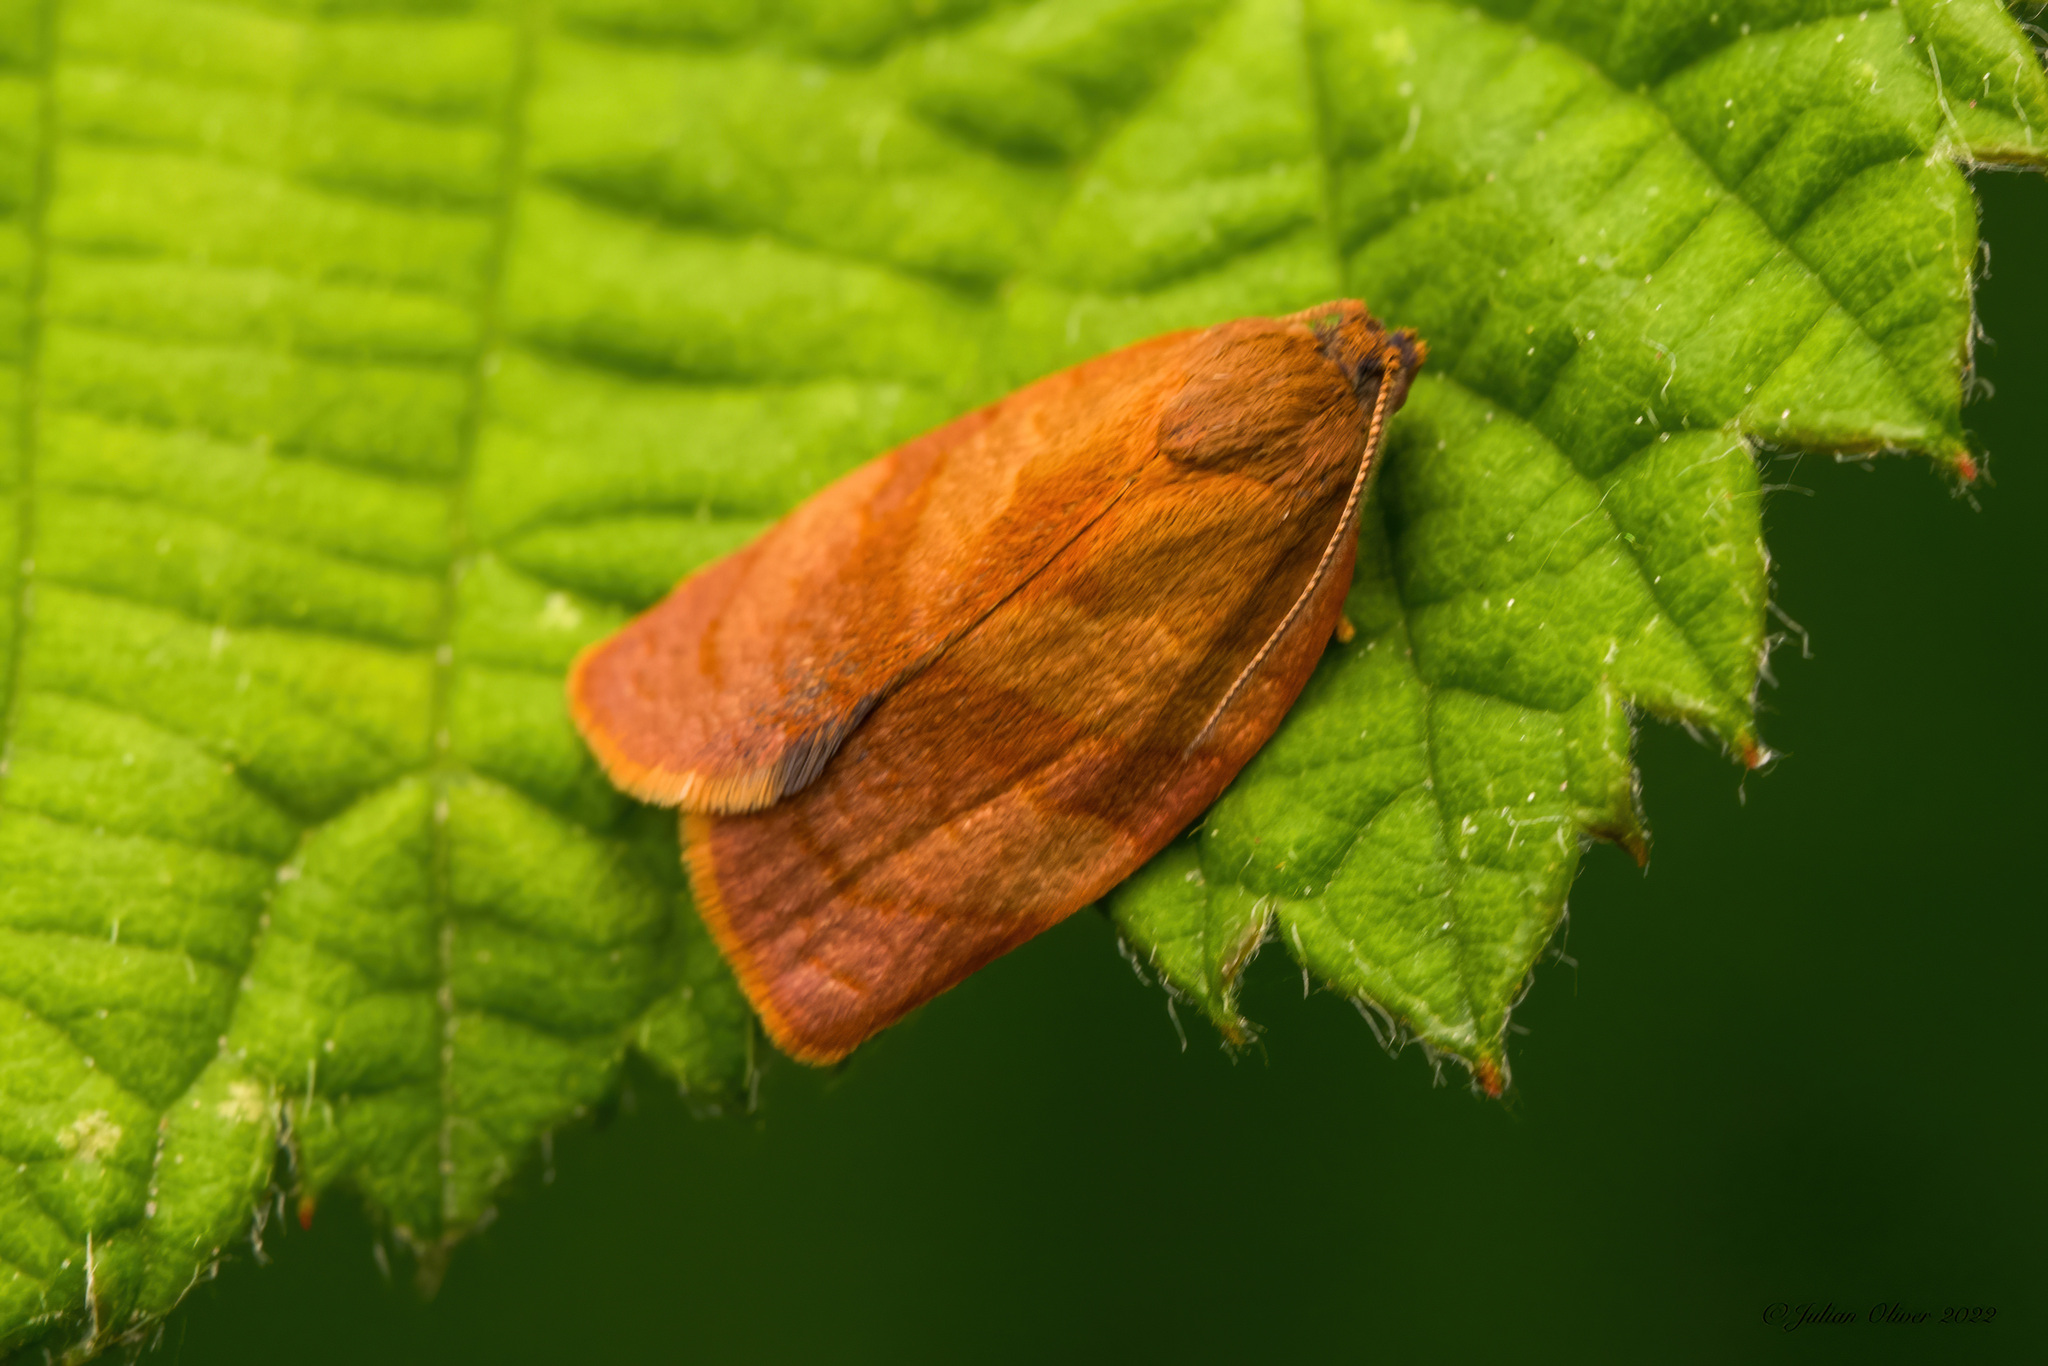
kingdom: Animalia
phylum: Arthropoda
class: Insecta
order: Lepidoptera
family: Tortricidae
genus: Cacoecimorpha
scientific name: Cacoecimorpha pronubana
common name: Carnation tortrix
